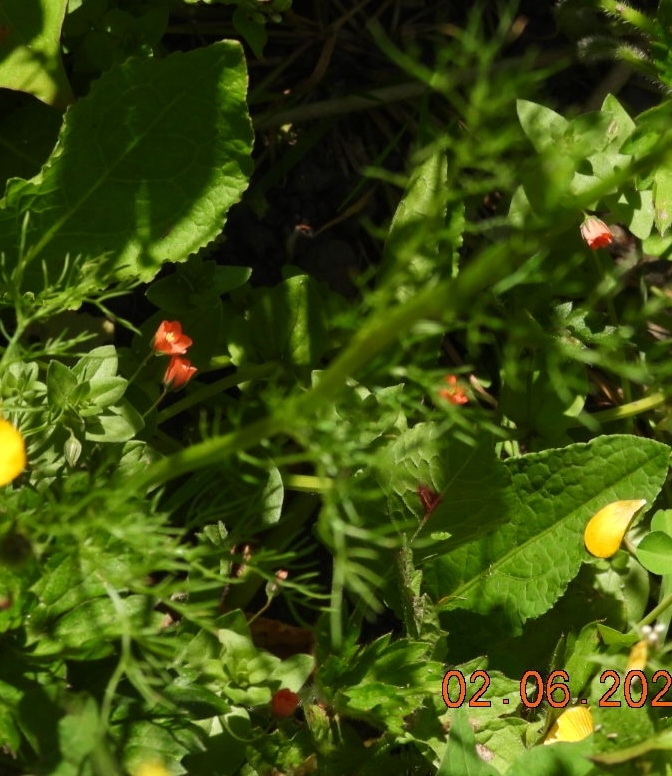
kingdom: Plantae
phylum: Tracheophyta
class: Magnoliopsida
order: Ericales
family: Primulaceae
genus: Lysimachia
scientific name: Lysimachia arvensis
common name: Scarlet pimpernel
